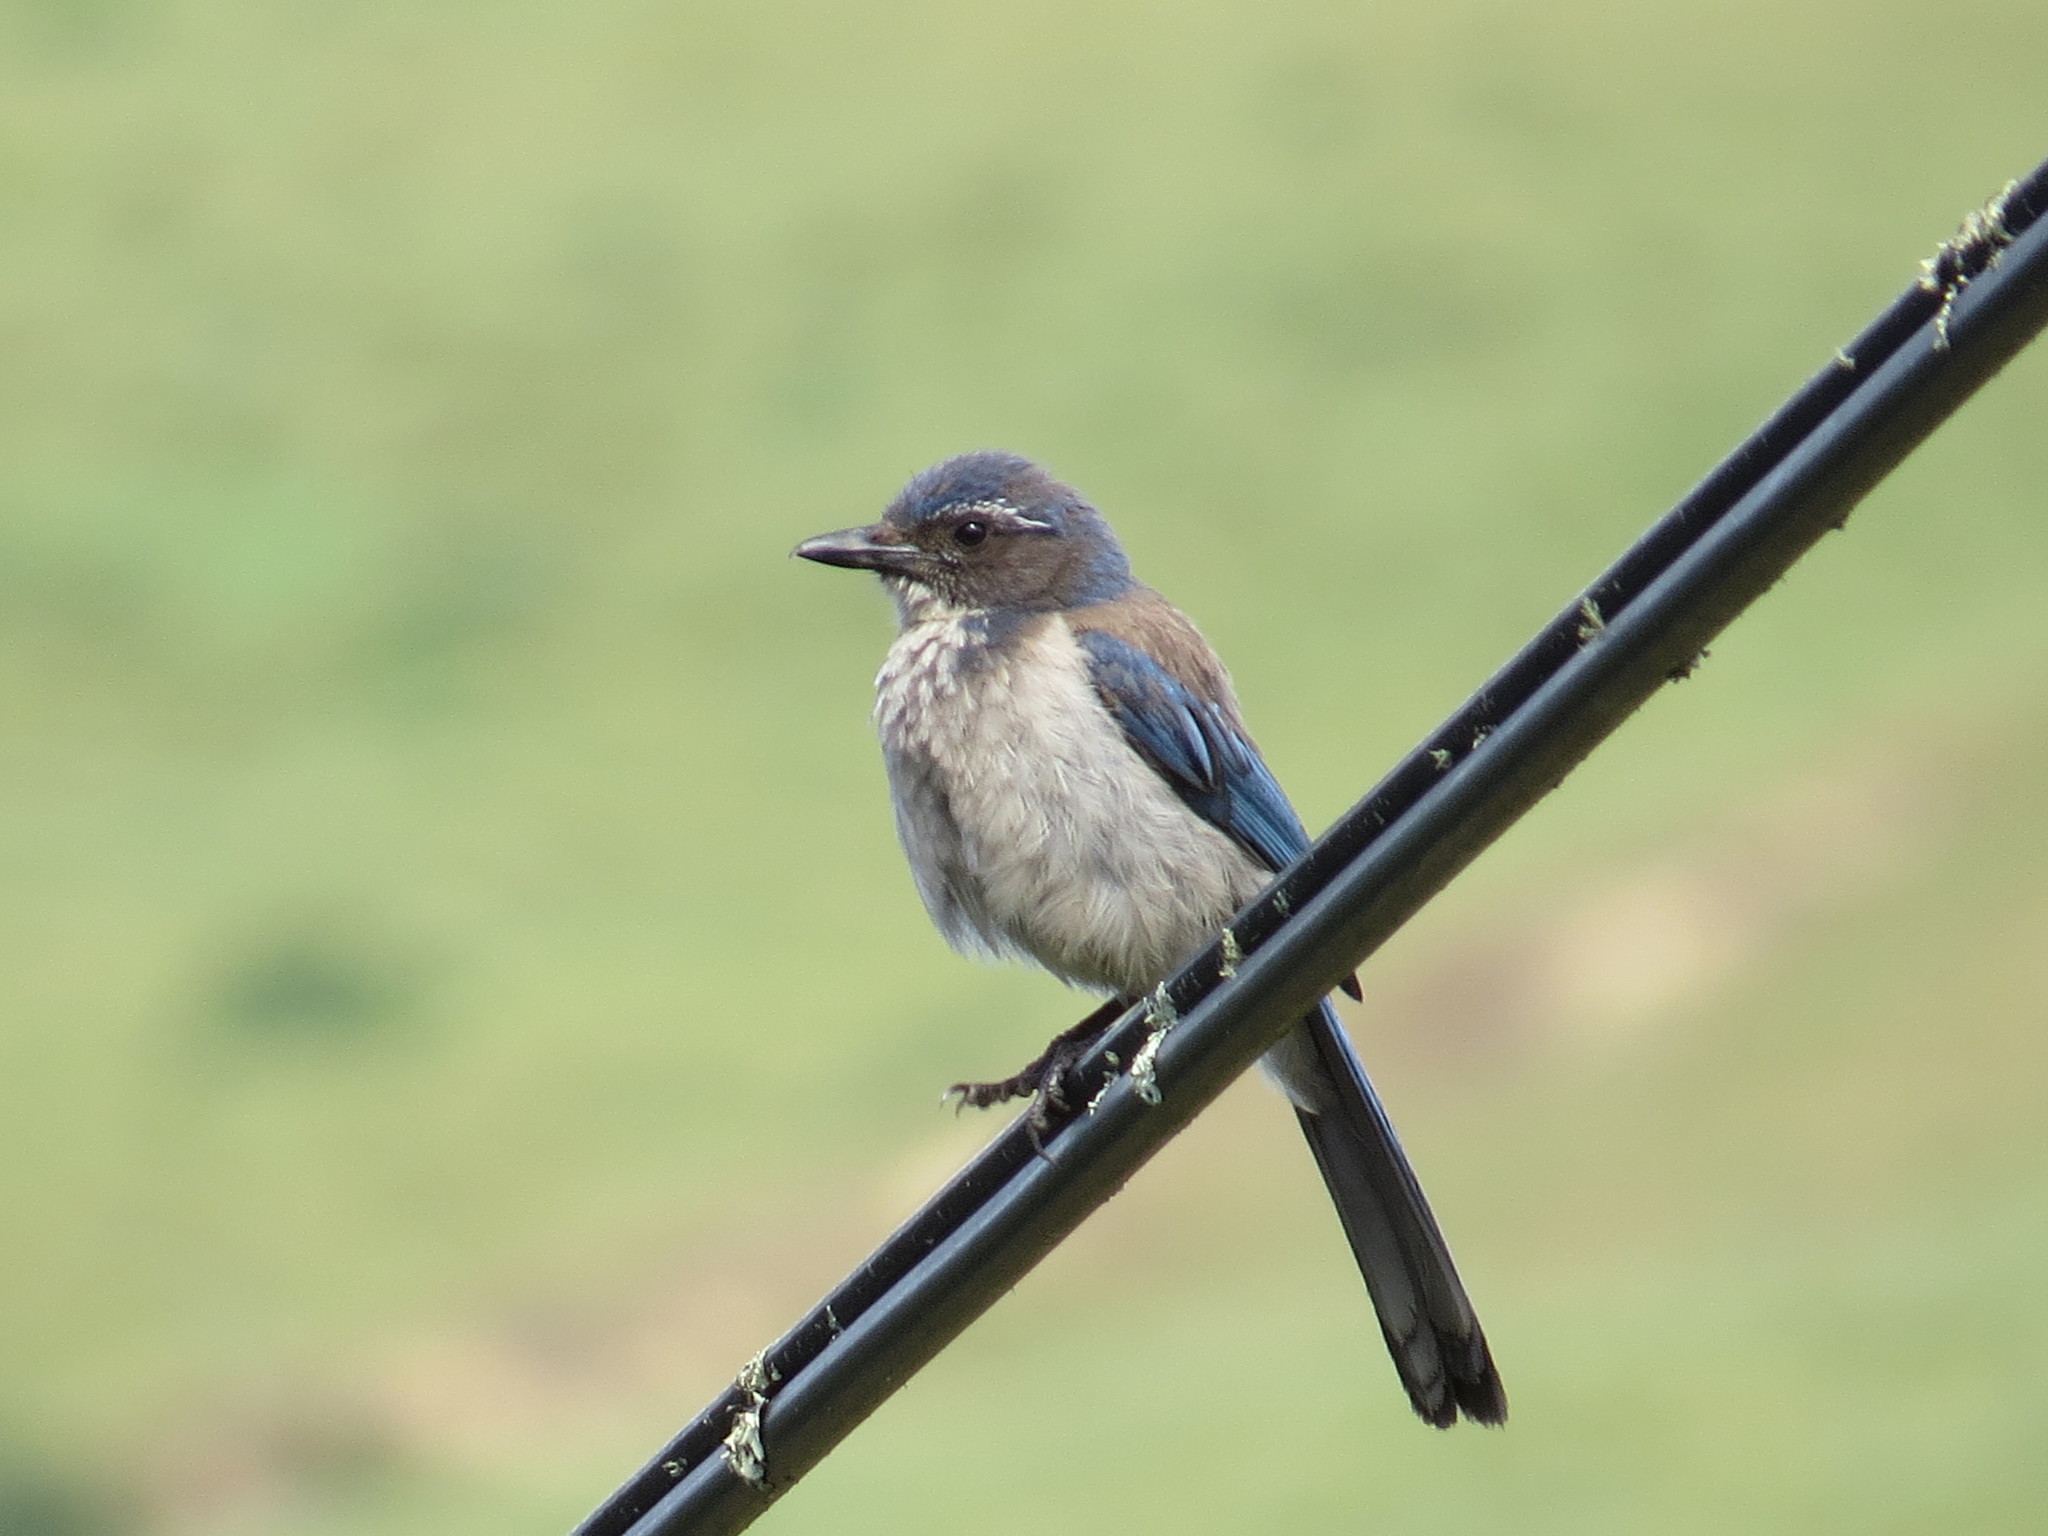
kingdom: Animalia
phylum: Chordata
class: Aves
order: Passeriformes
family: Corvidae
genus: Aphelocoma
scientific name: Aphelocoma californica
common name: California scrub-jay
